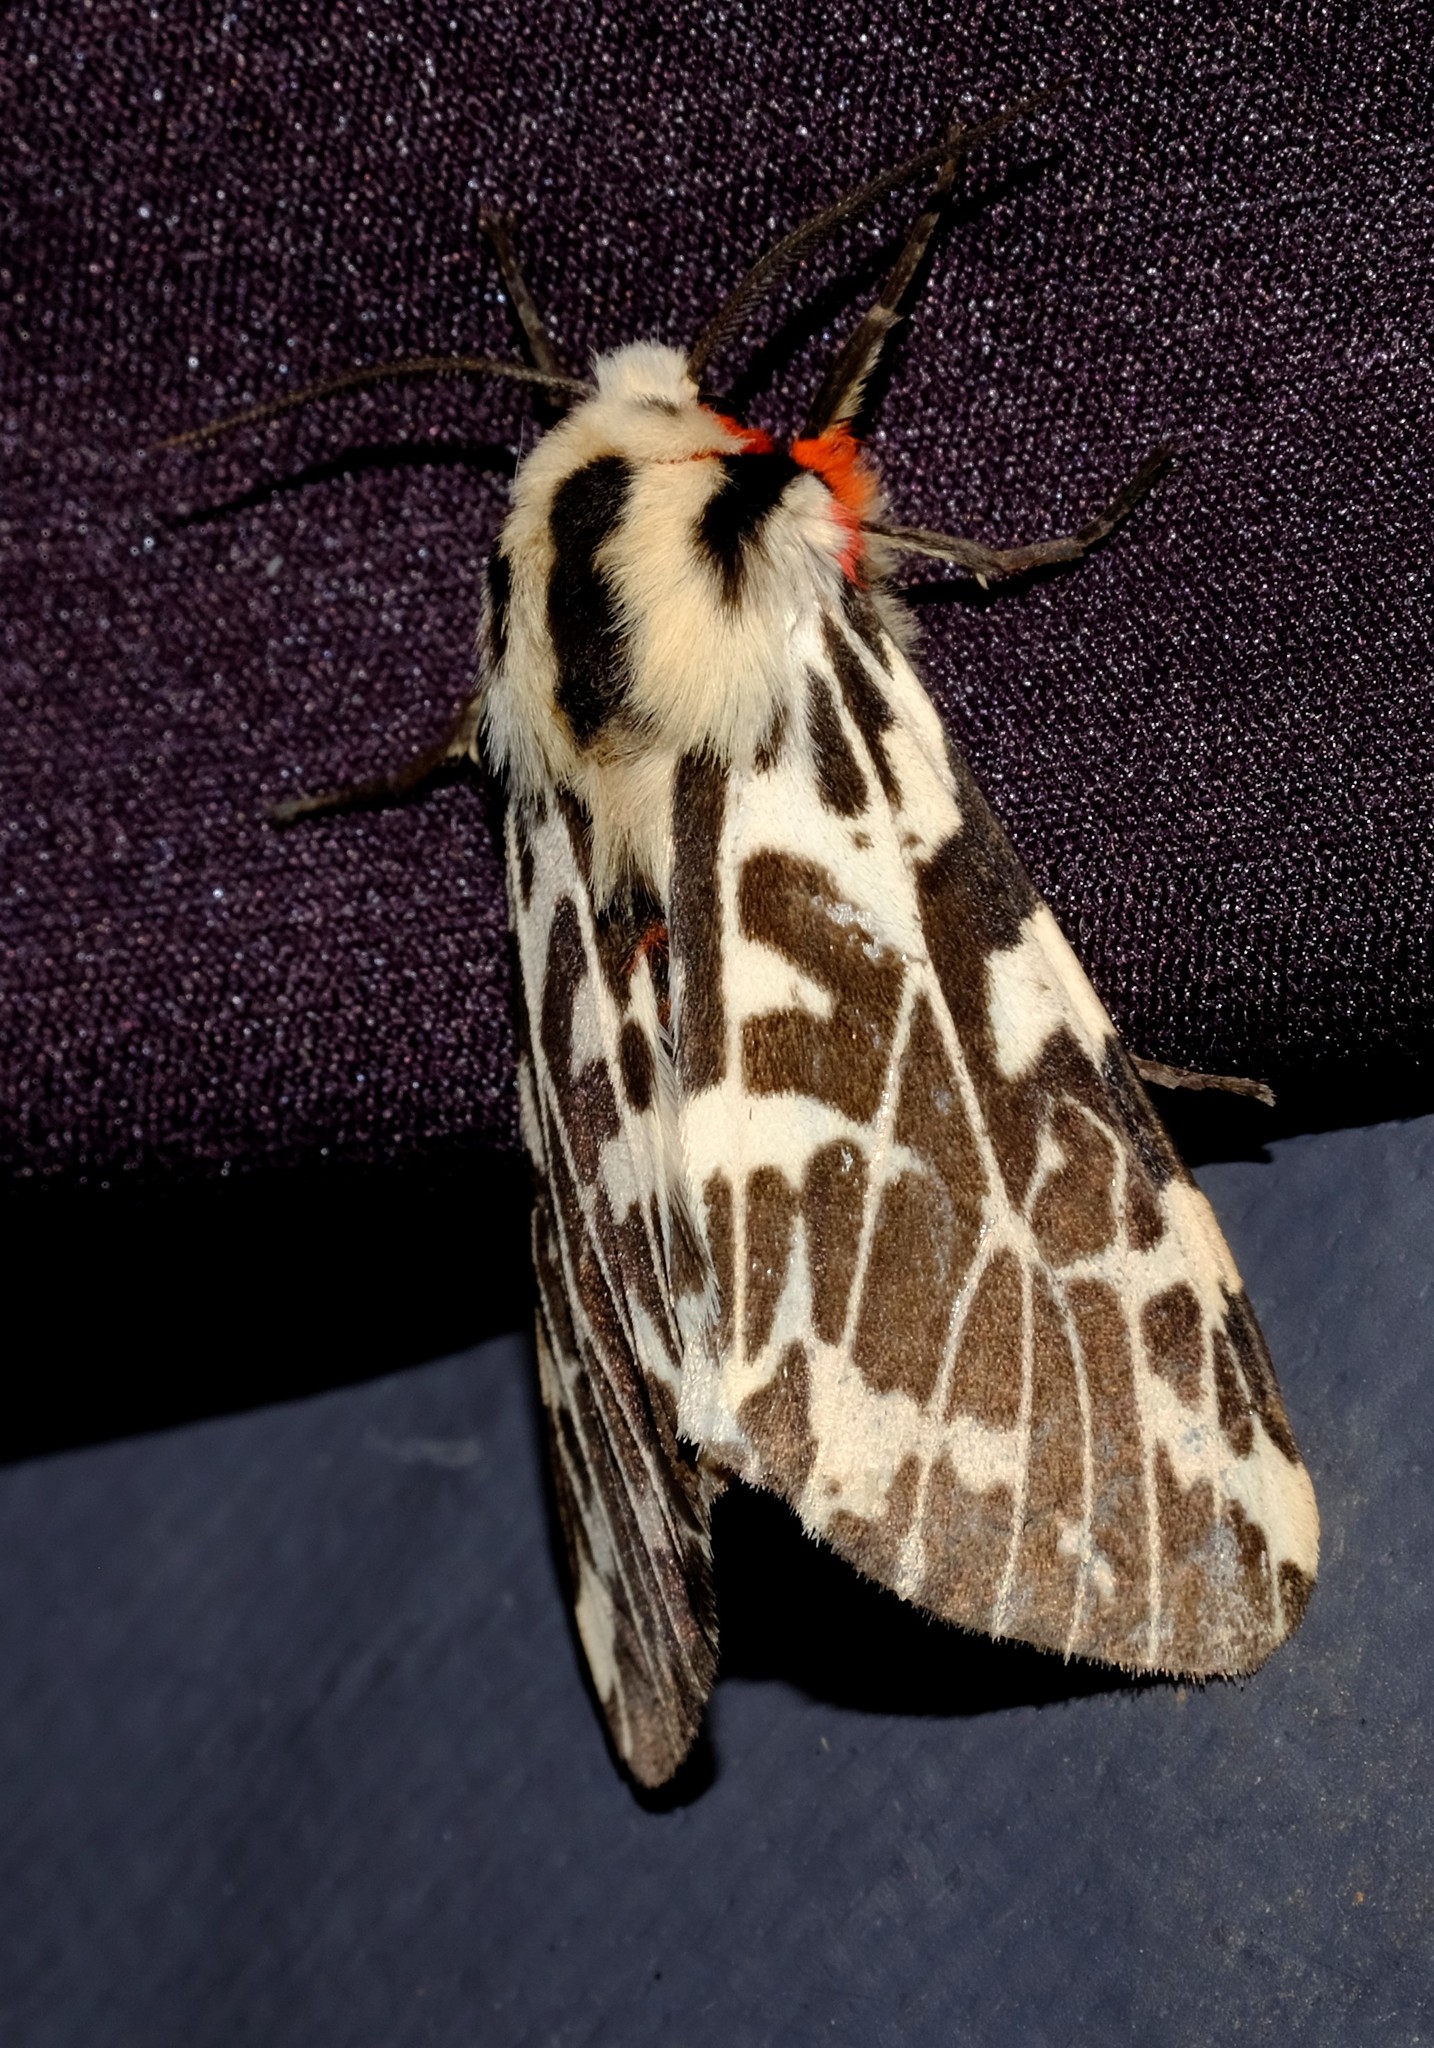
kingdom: Animalia
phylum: Arthropoda
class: Insecta
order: Lepidoptera
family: Erebidae
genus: Ardices
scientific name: Ardices glatignyi
